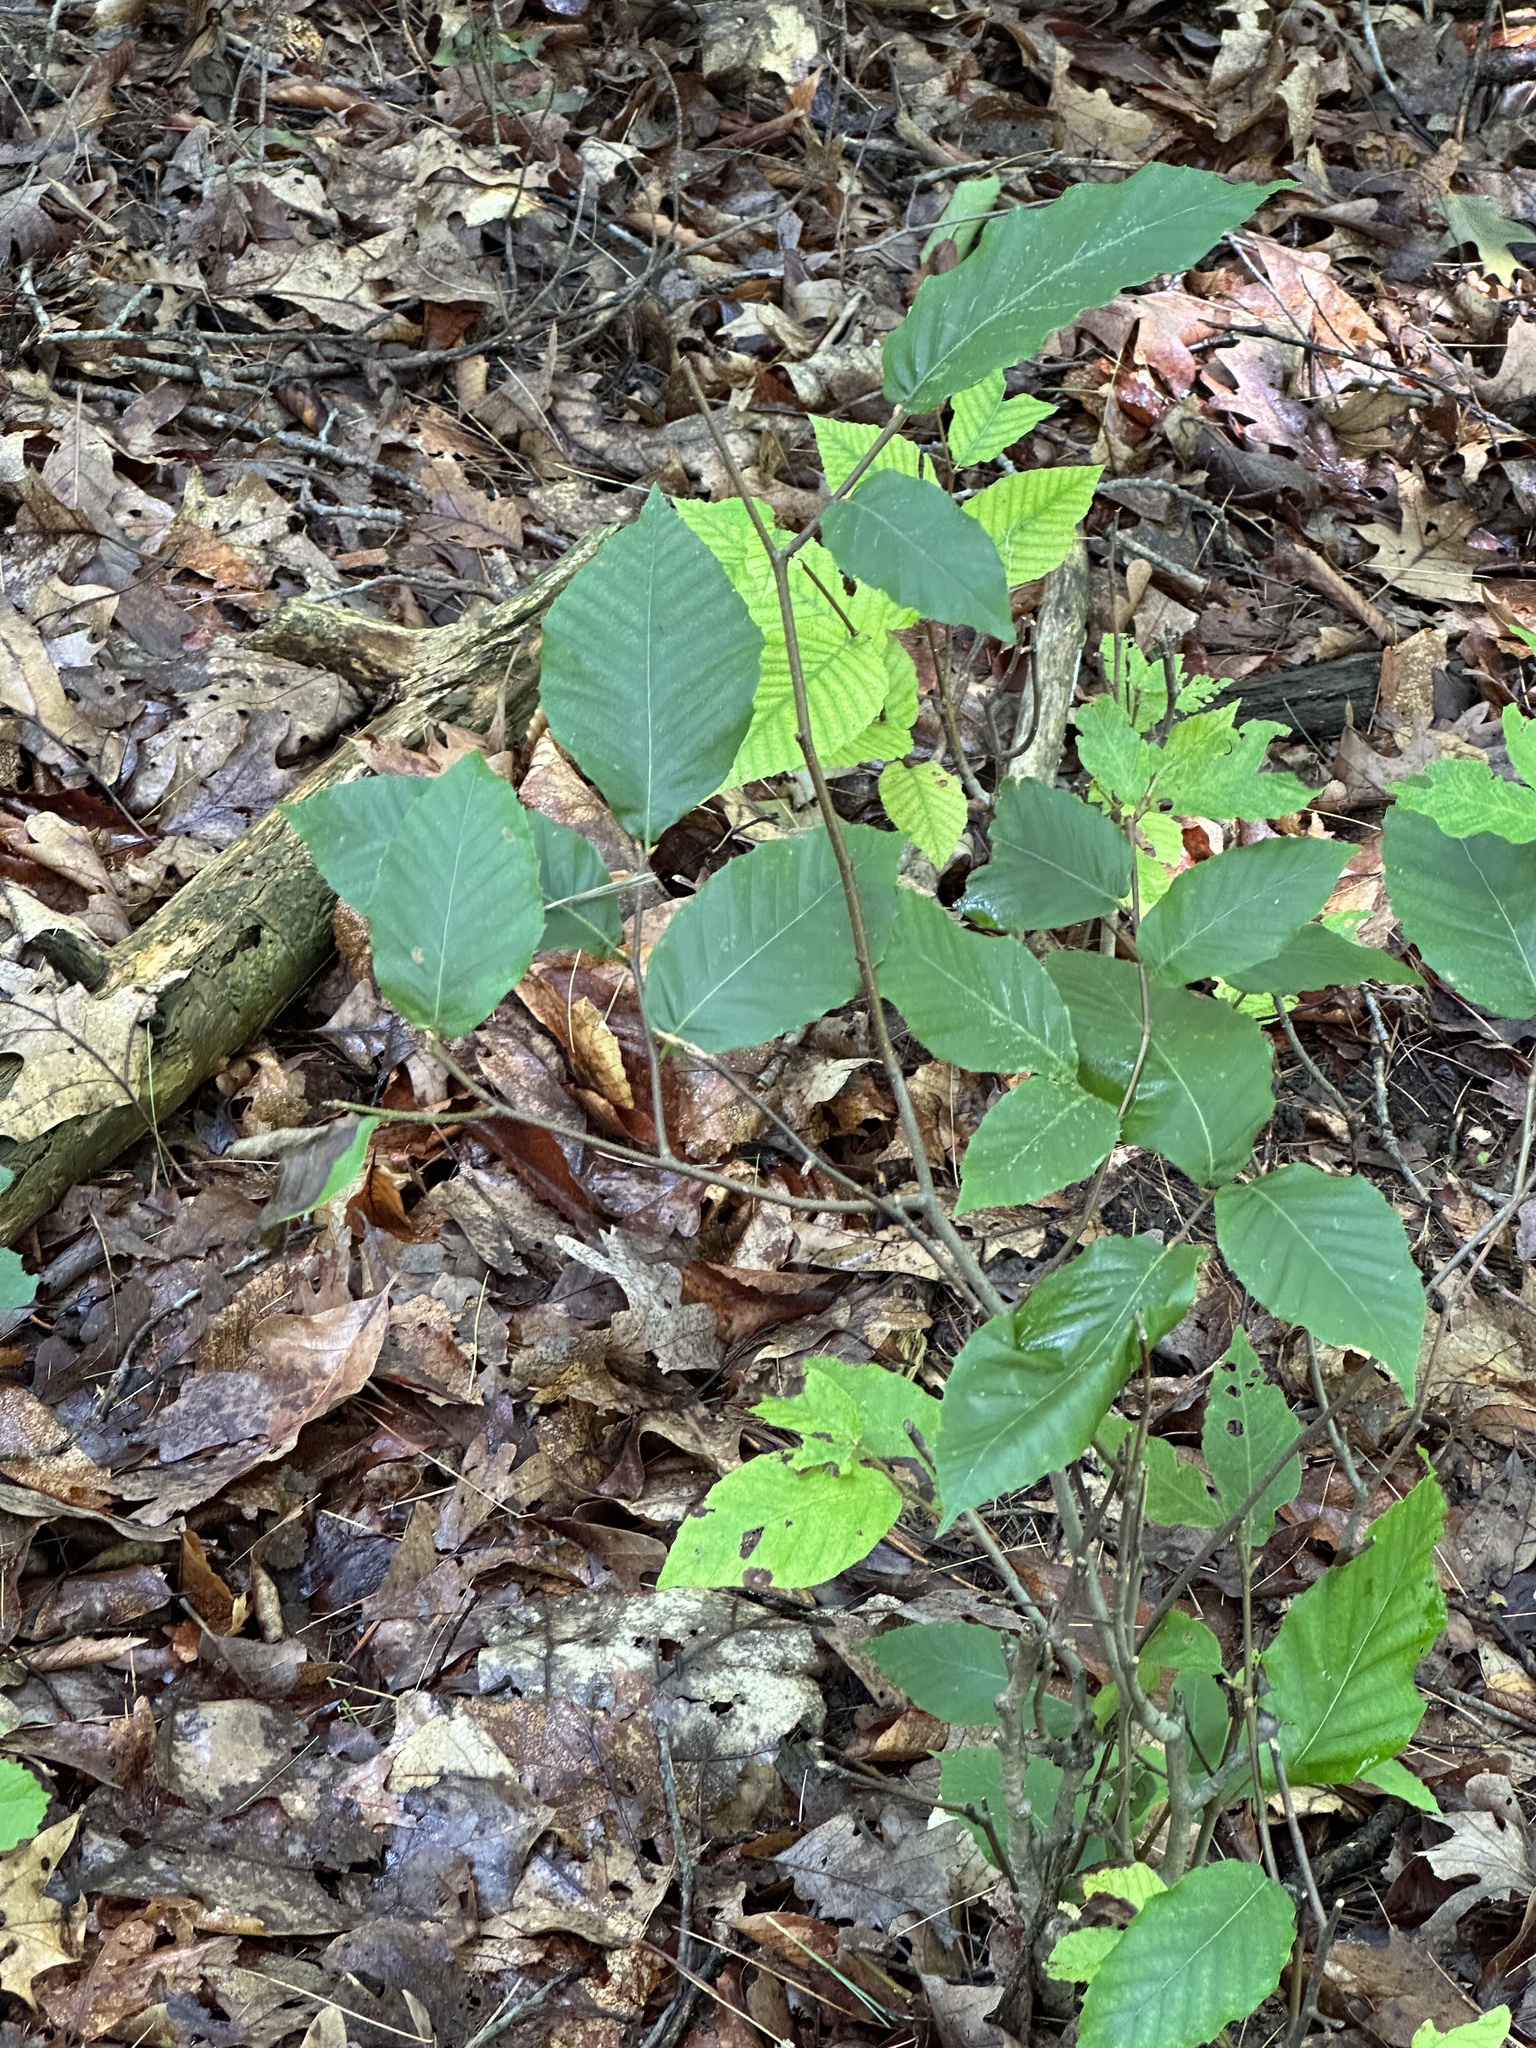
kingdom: Plantae
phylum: Tracheophyta
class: Magnoliopsida
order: Fagales
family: Fagaceae
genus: Fagus
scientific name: Fagus grandifolia
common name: American beech
